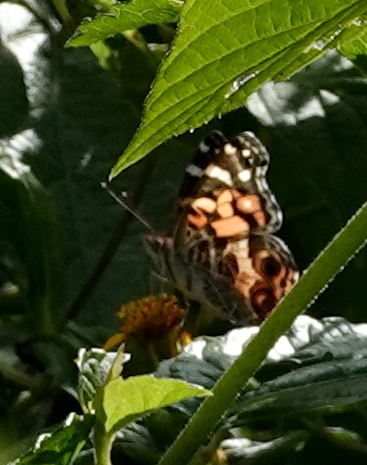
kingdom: Animalia
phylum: Arthropoda
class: Insecta
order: Lepidoptera
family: Nymphalidae
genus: Vanessa
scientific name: Vanessa virginiensis
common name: American lady
